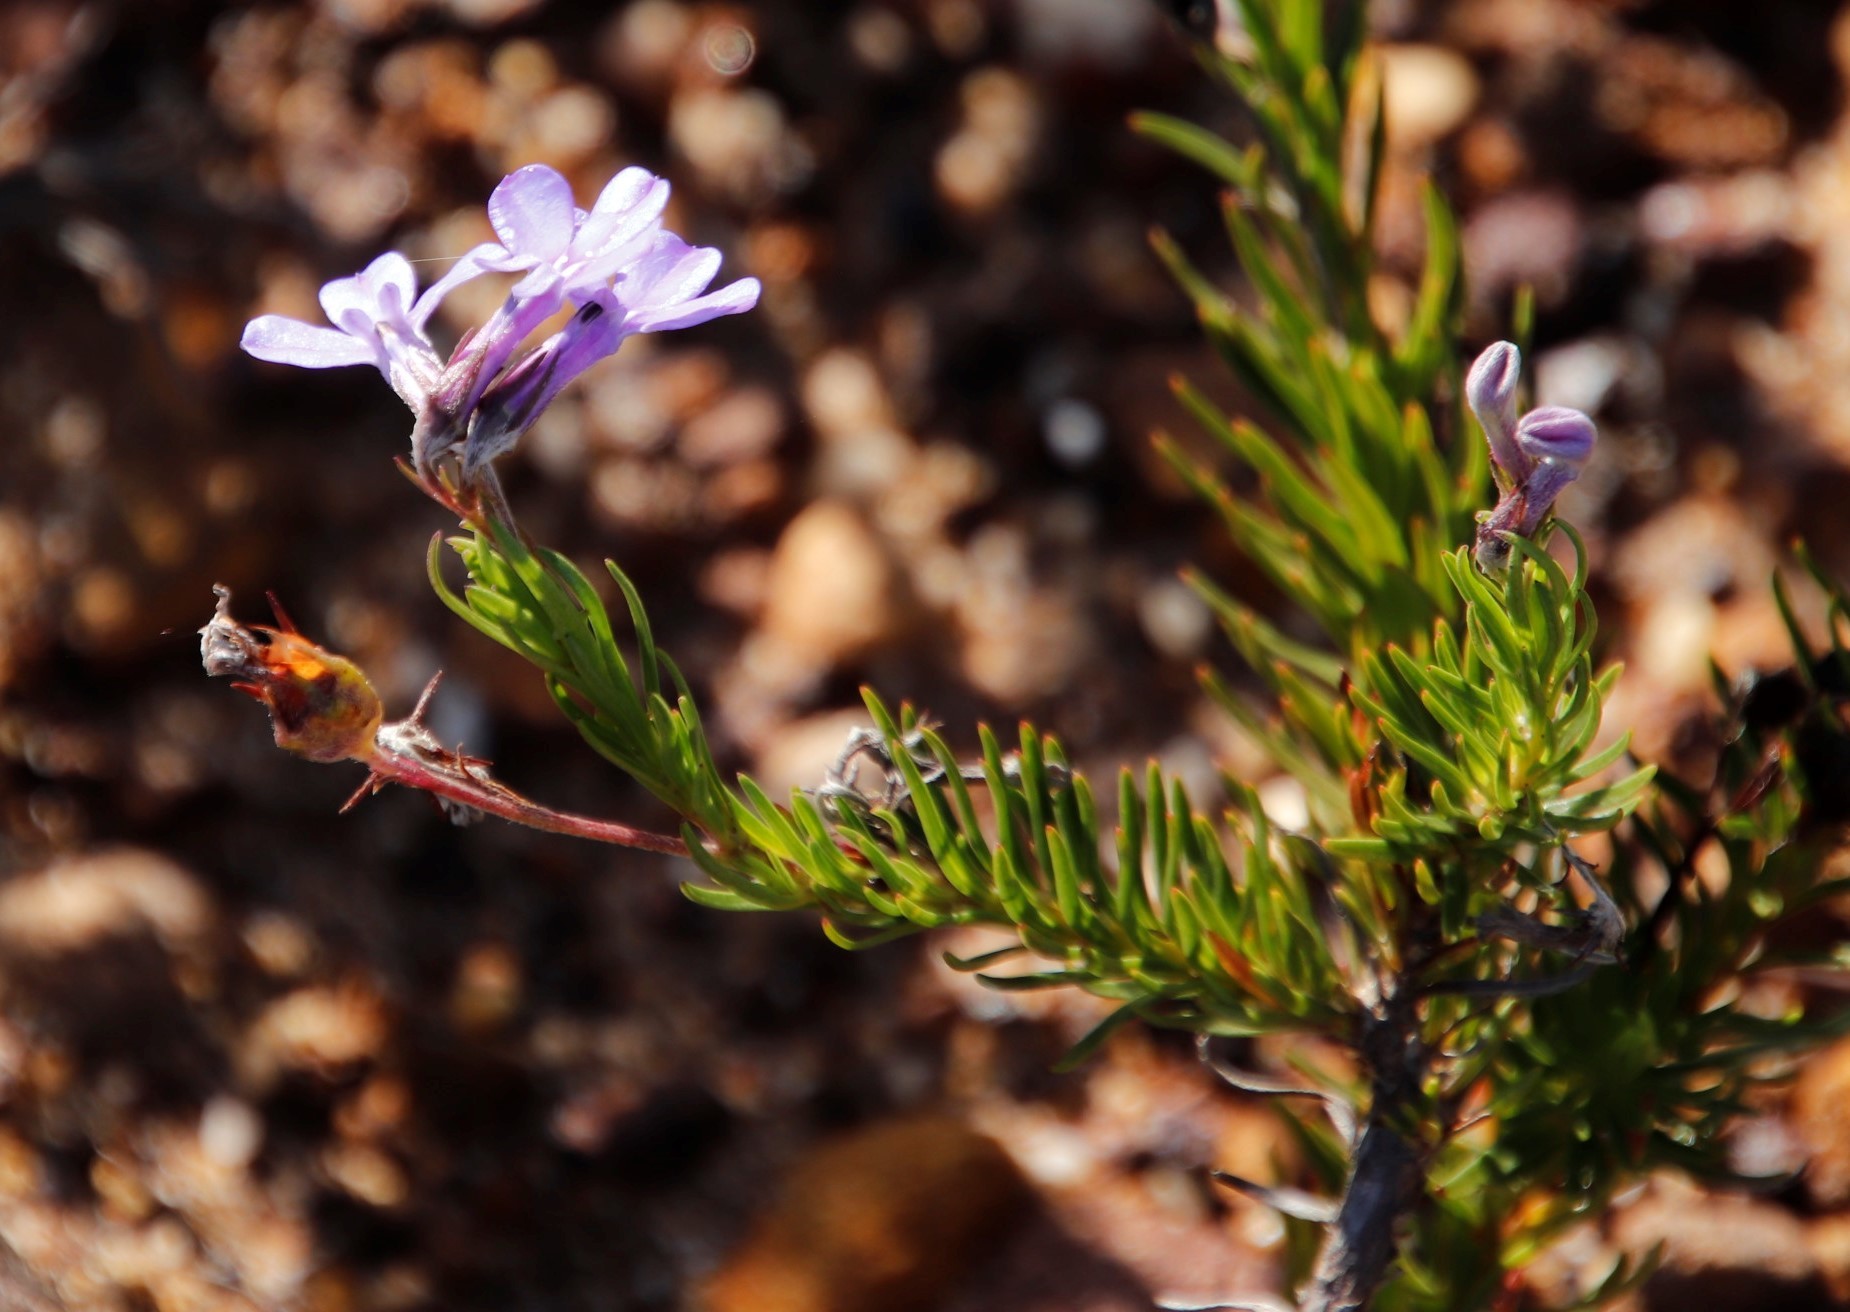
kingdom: Plantae
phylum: Tracheophyta
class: Magnoliopsida
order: Asterales
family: Campanulaceae
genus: Lobelia
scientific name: Lobelia pinifolia
